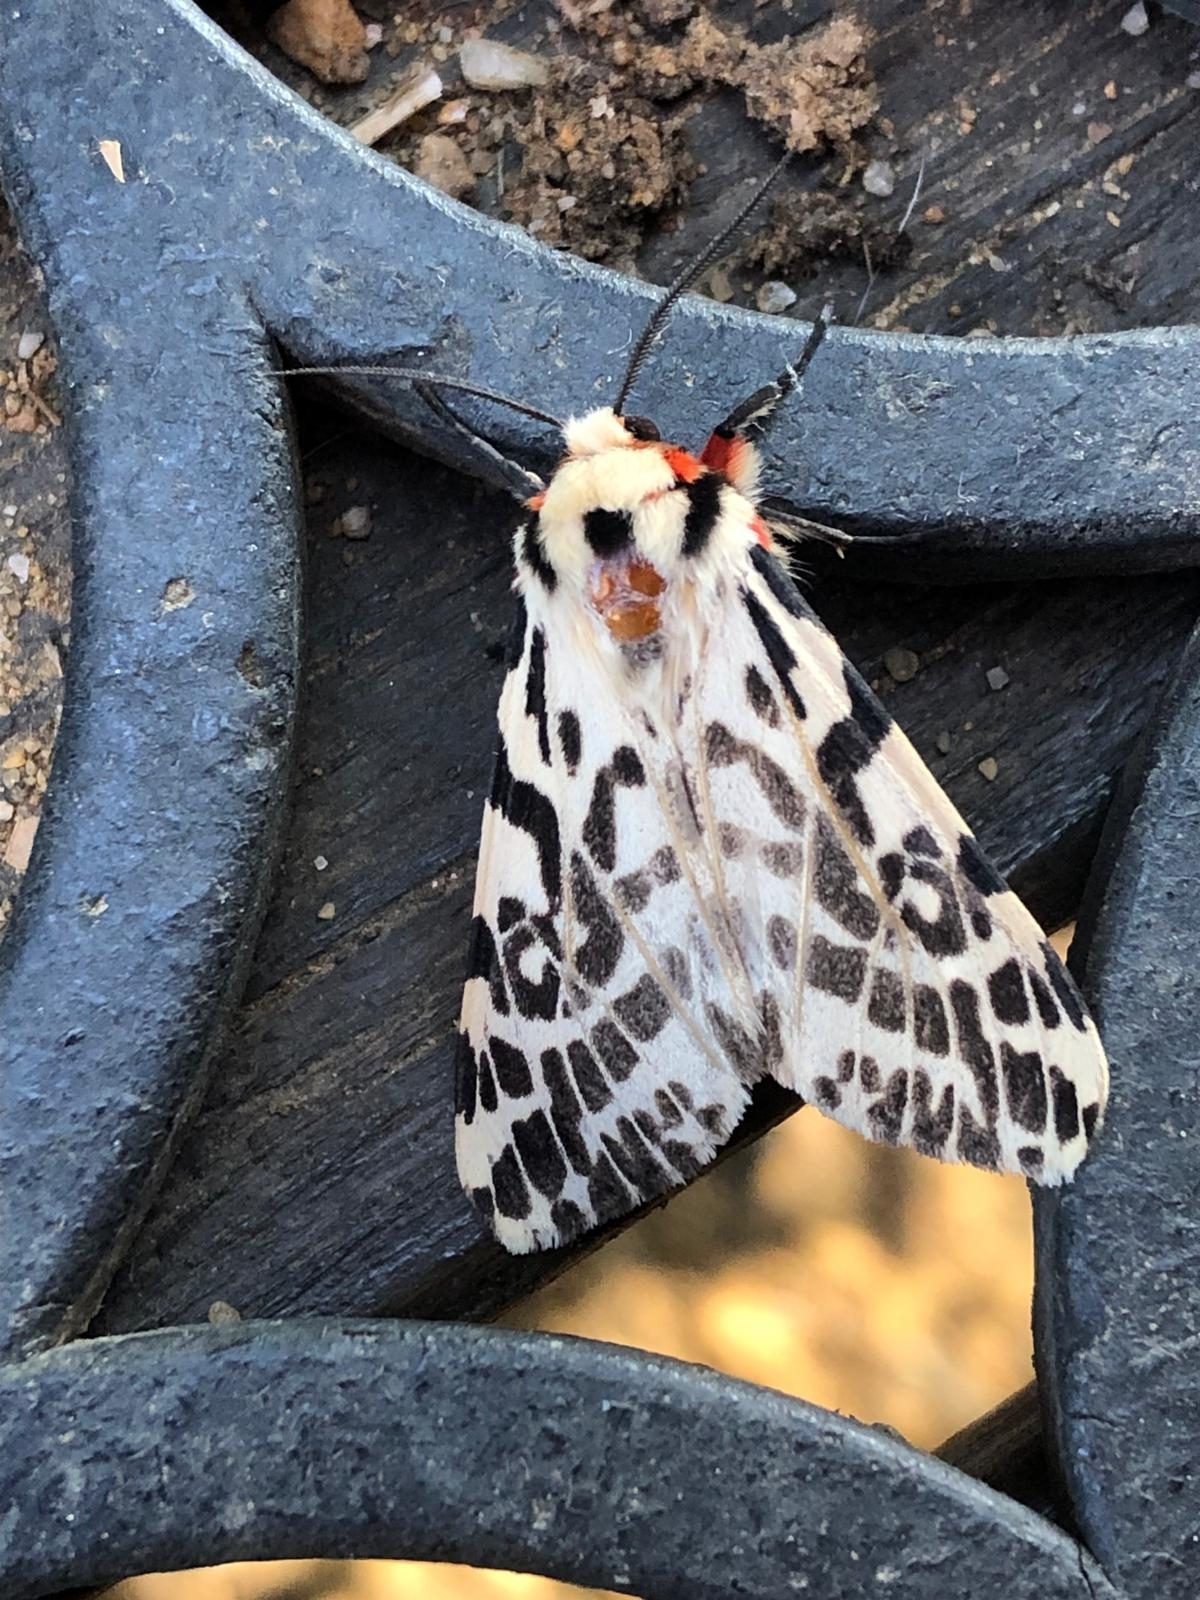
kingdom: Animalia
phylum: Arthropoda
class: Insecta
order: Lepidoptera
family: Erebidae
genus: Ardices
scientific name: Ardices glatignyi
